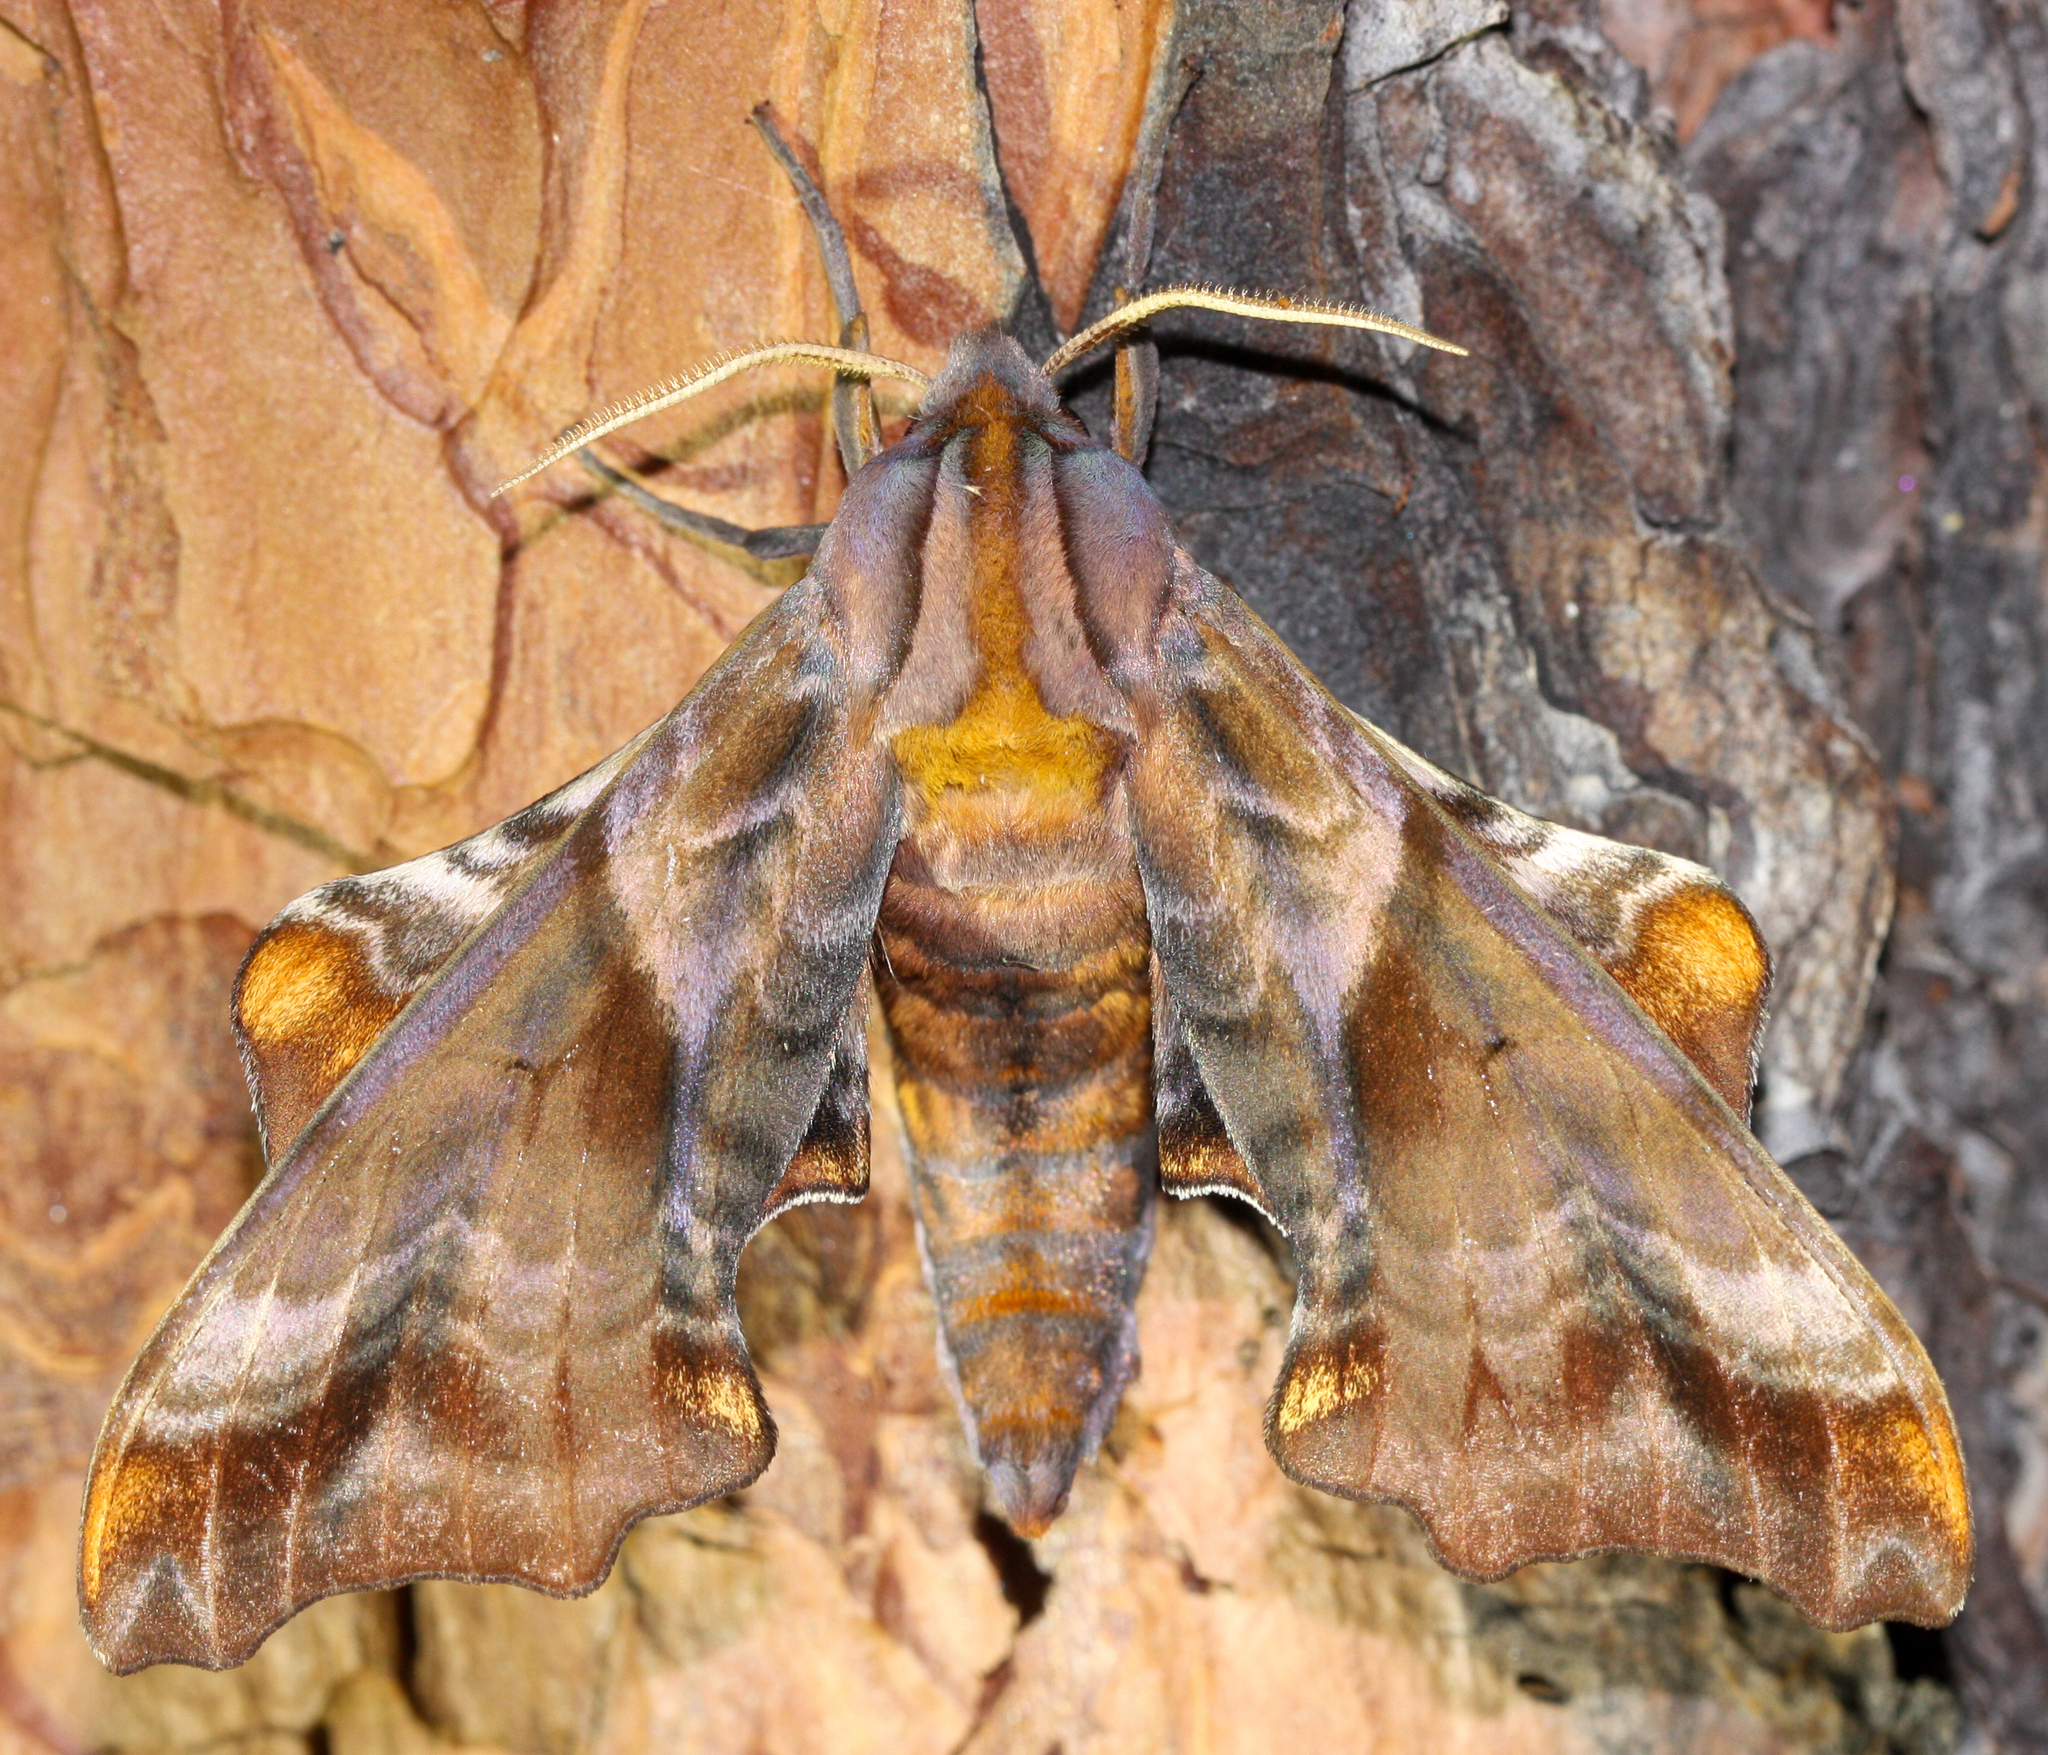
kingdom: Animalia
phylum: Arthropoda
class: Insecta
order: Lepidoptera
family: Sphingidae
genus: Paonias
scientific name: Paonias myops
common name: Small-eyed sphinx
